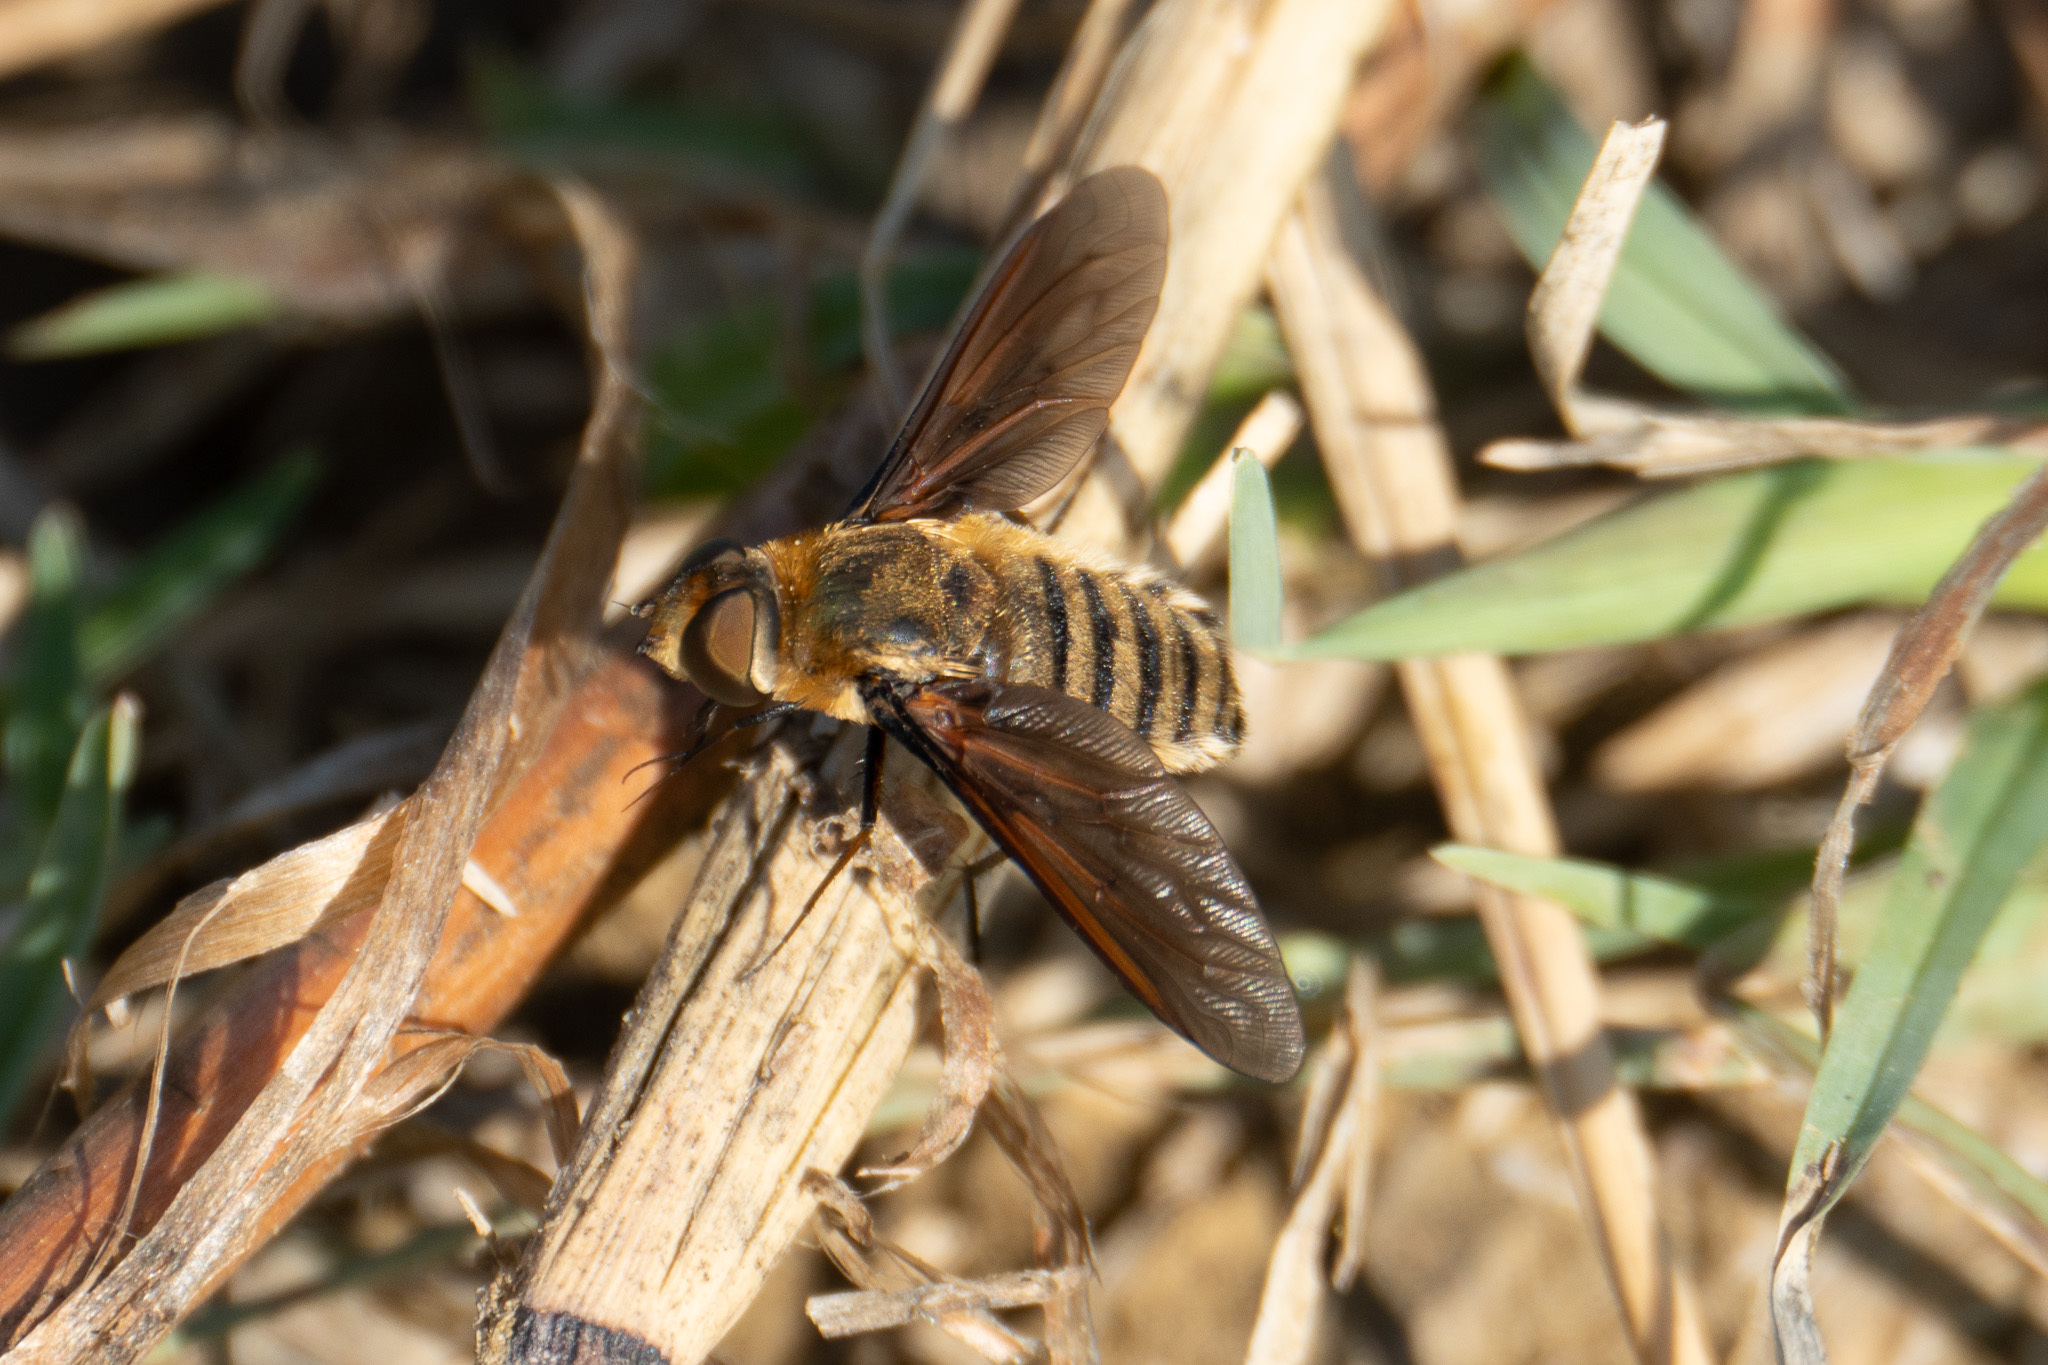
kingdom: Animalia
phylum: Arthropoda
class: Insecta
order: Diptera
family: Bombyliidae
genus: Poecilanthrax
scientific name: Poecilanthrax lucifer
